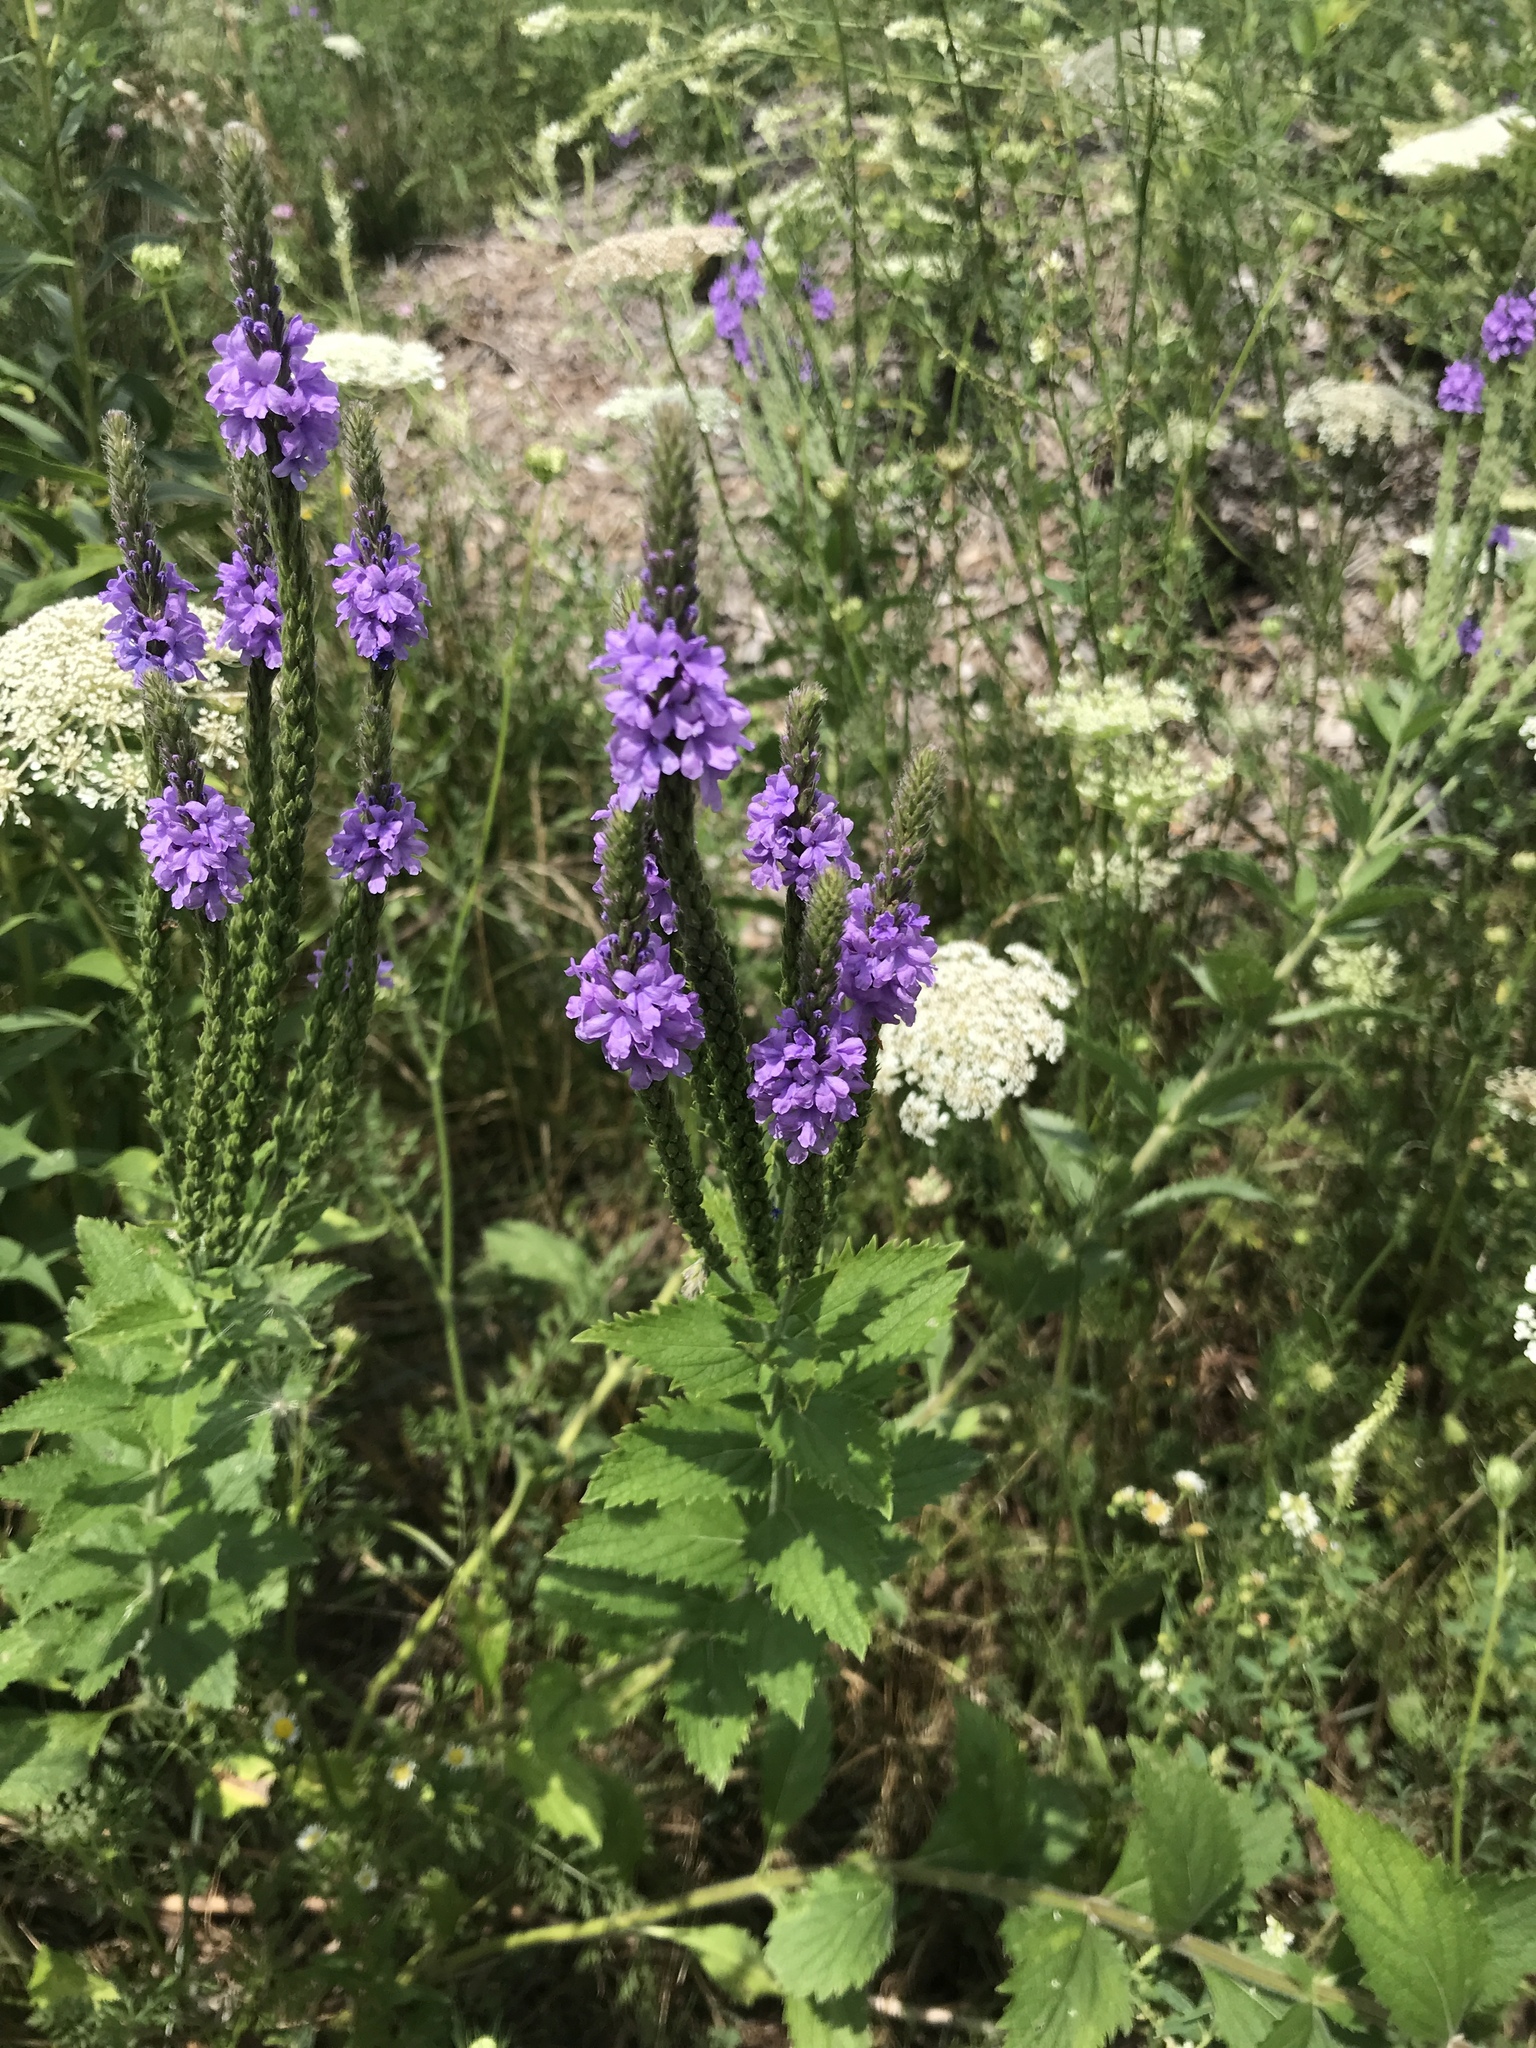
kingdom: Plantae
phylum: Tracheophyta
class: Magnoliopsida
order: Lamiales
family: Verbenaceae
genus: Verbena
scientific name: Verbena stricta
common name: Hoary vervain
